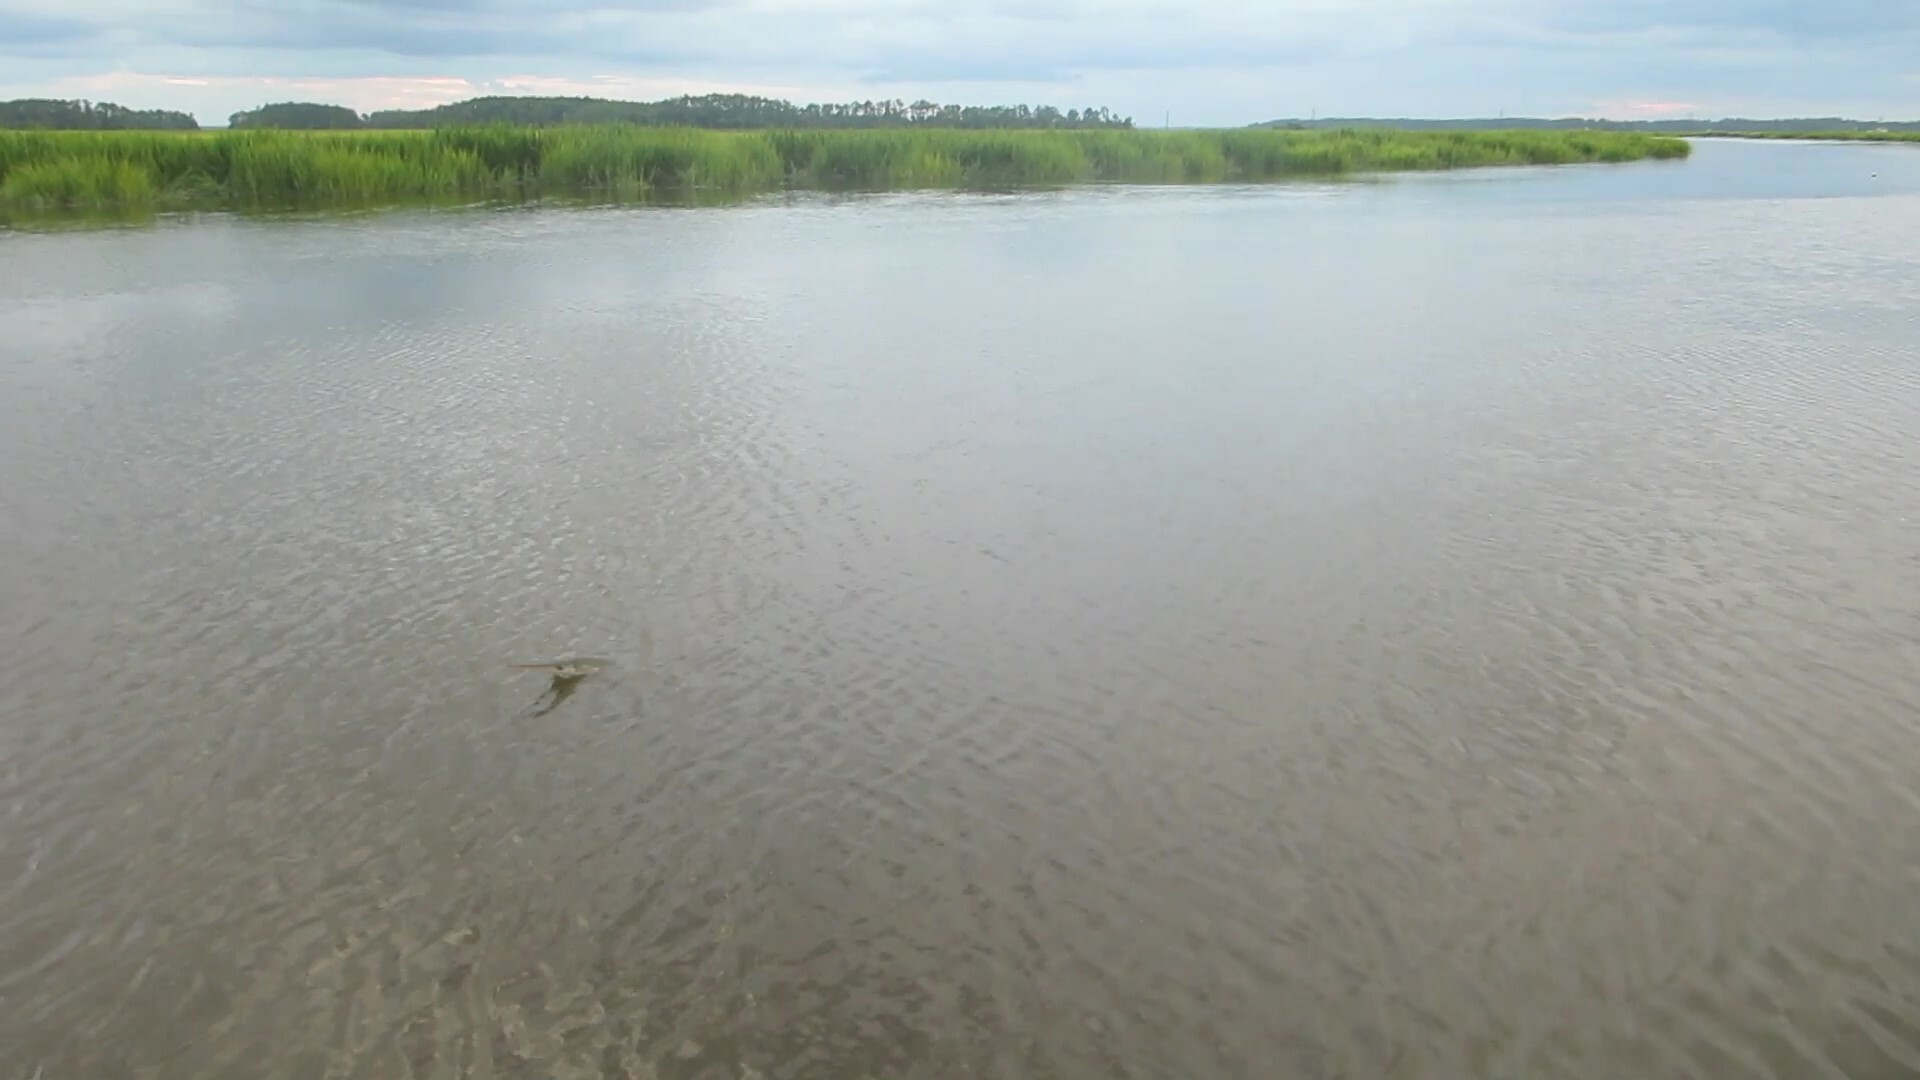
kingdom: Animalia
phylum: Chordata
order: Lepisosteiformes
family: Lepisosteidae
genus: Lepisosteus
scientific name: Lepisosteus osseus
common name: Longnose gar
